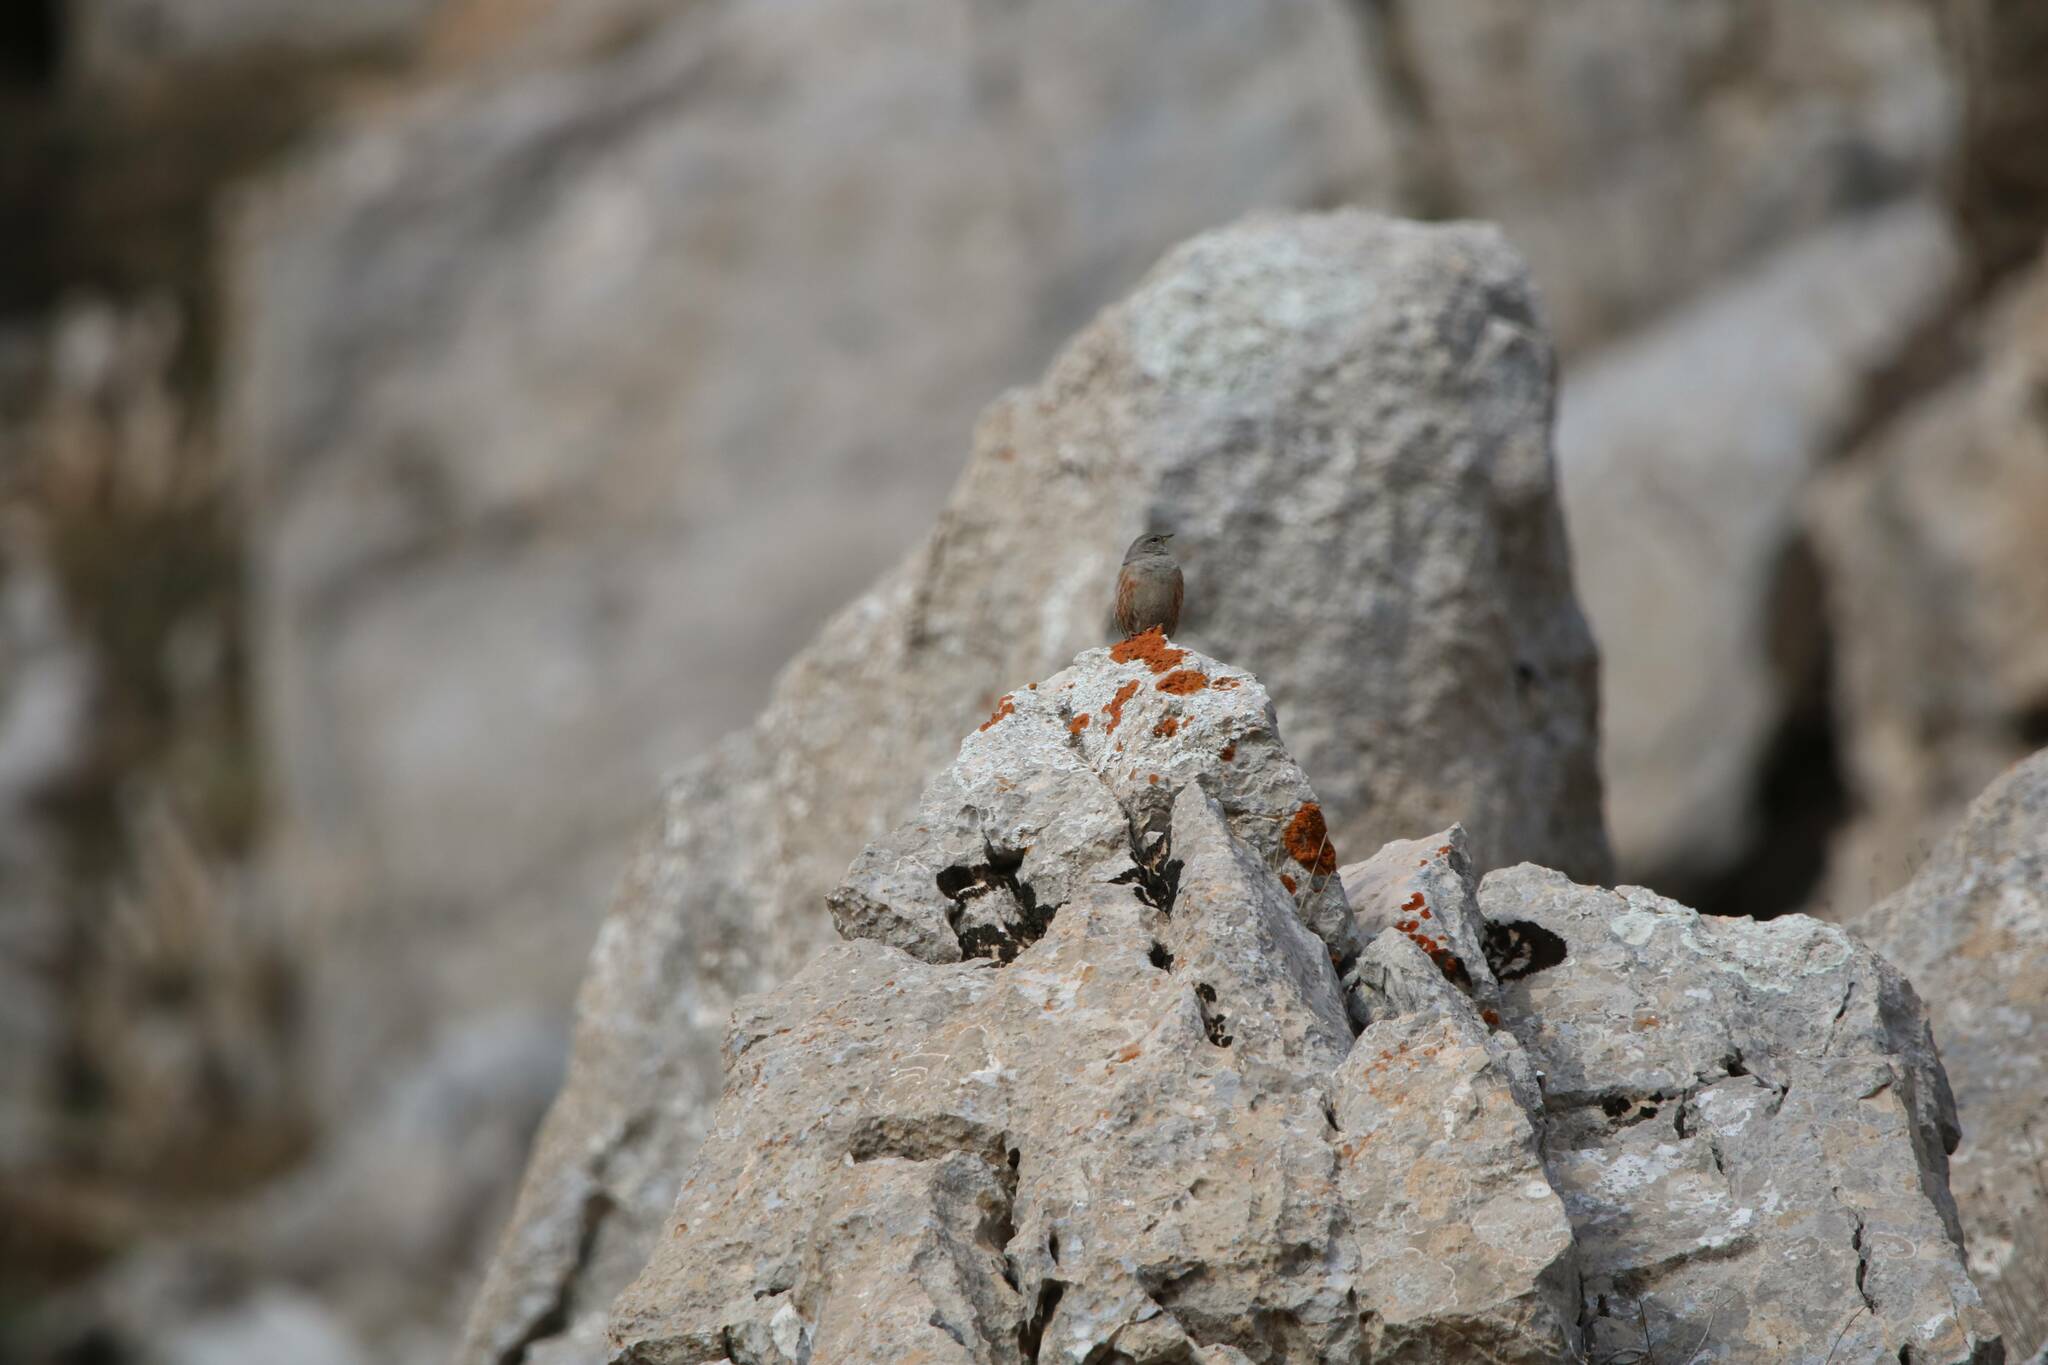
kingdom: Animalia
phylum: Chordata
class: Aves
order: Passeriformes
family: Prunellidae
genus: Prunella
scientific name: Prunella collaris
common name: Alpine accentor
